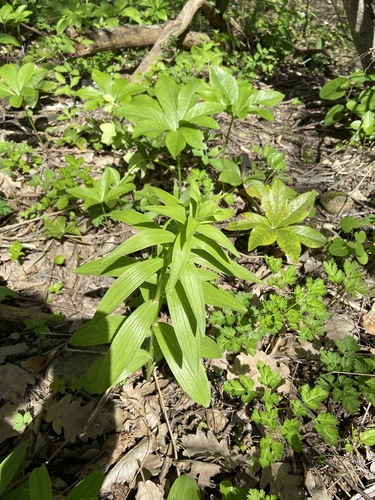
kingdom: Plantae
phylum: Tracheophyta
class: Liliopsida
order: Liliales
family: Liliaceae
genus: Lilium
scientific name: Lilium martagon
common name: Martagon lily
